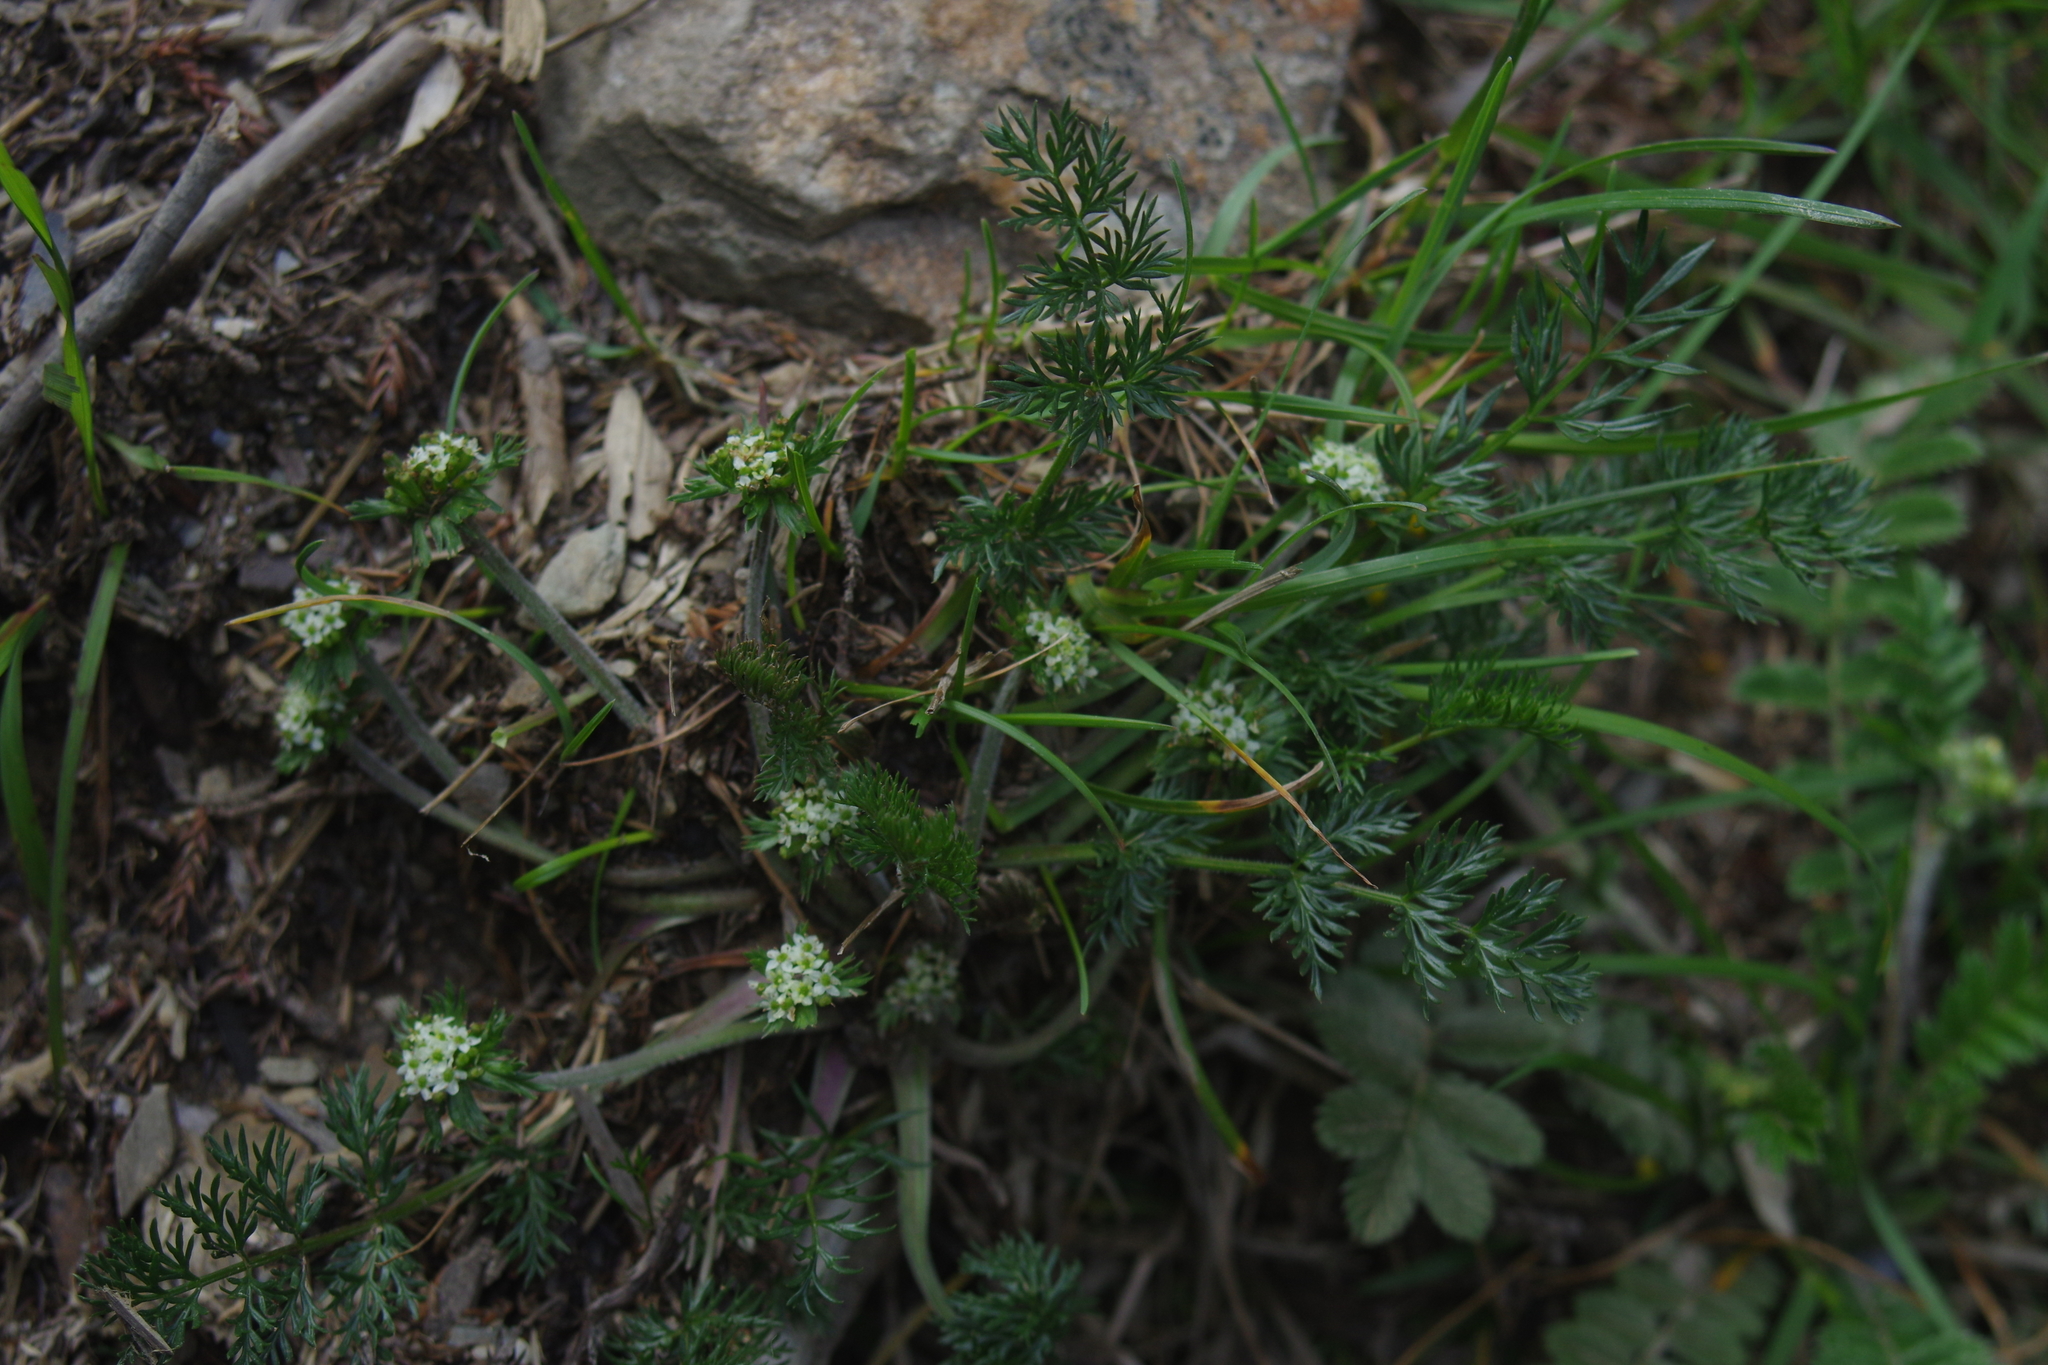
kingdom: Plantae
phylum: Tracheophyta
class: Magnoliopsida
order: Apiales
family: Apiaceae
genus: Chaerophyllum
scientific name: Chaerophyllum nanhuense
